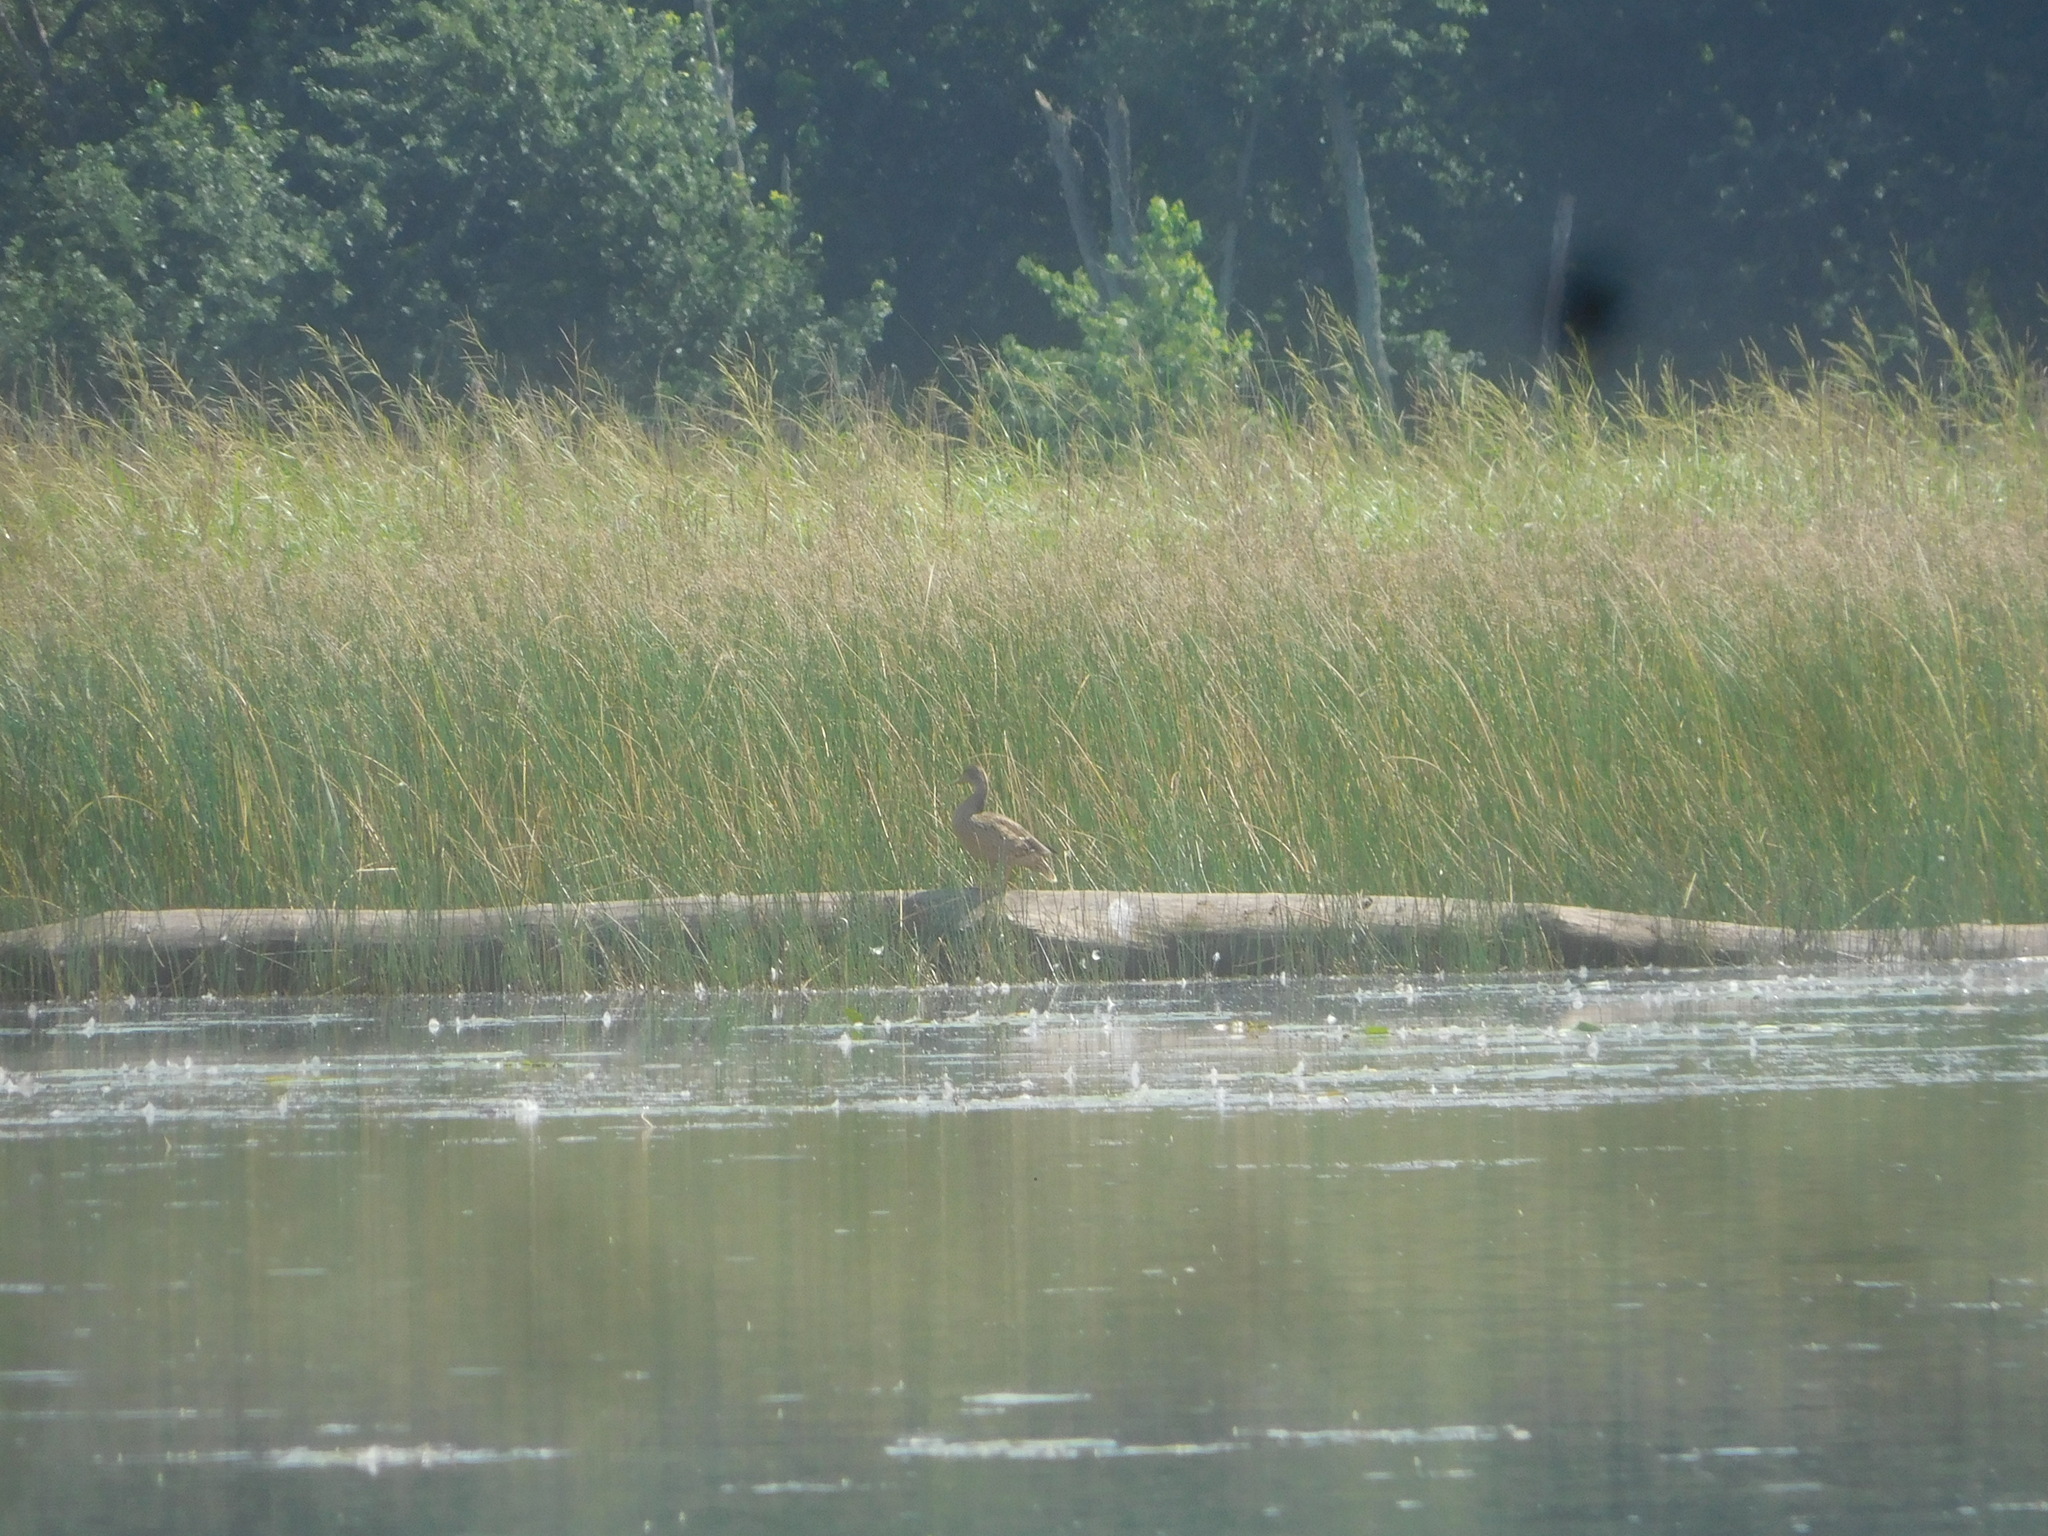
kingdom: Animalia
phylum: Chordata
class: Aves
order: Anseriformes
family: Anatidae
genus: Anas
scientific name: Anas platyrhynchos
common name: Mallard
